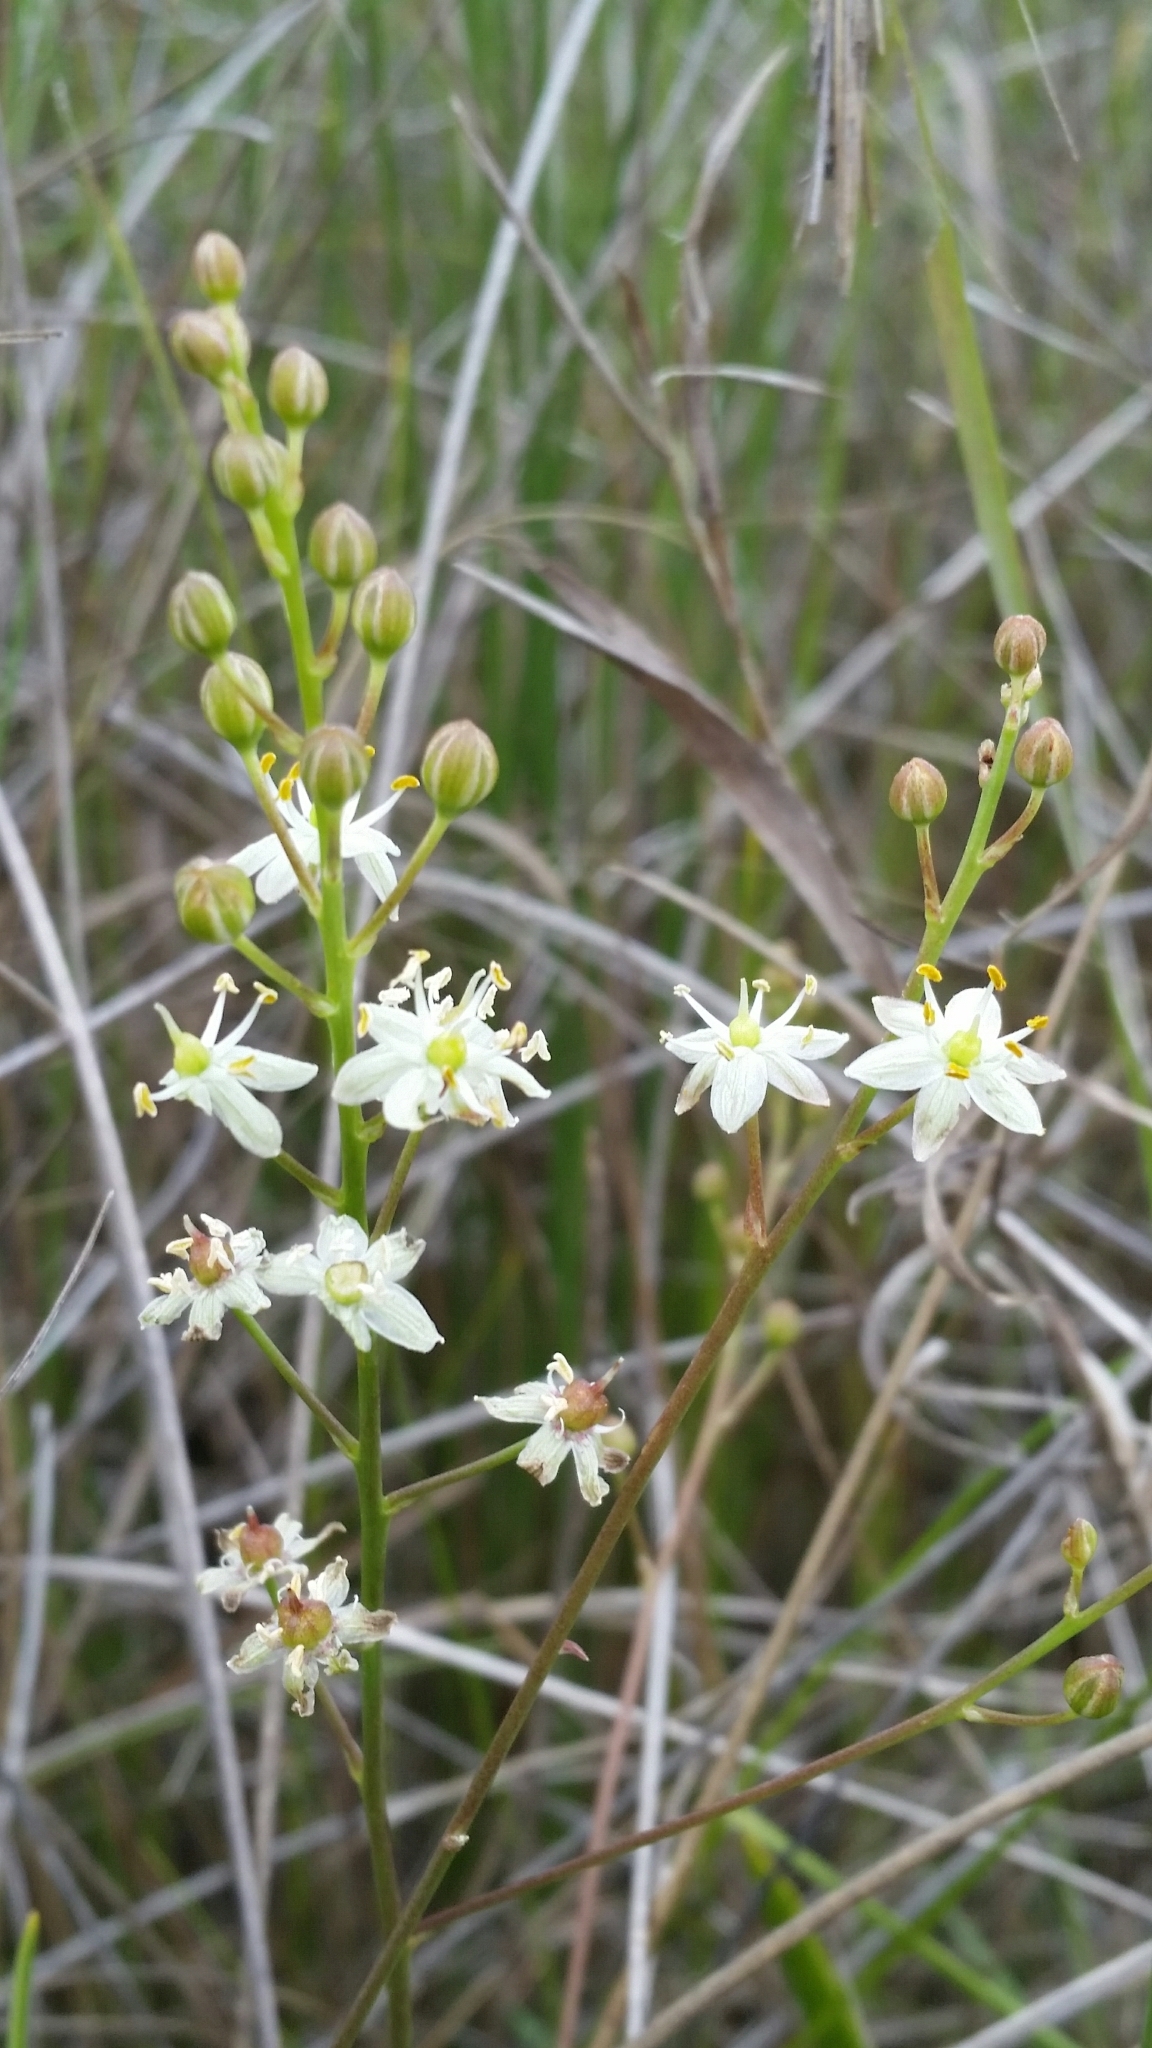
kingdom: Plantae
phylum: Tracheophyta
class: Liliopsida
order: Asparagales
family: Asparagaceae
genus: Schoenolirion
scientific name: Schoenolirion albiflorum
